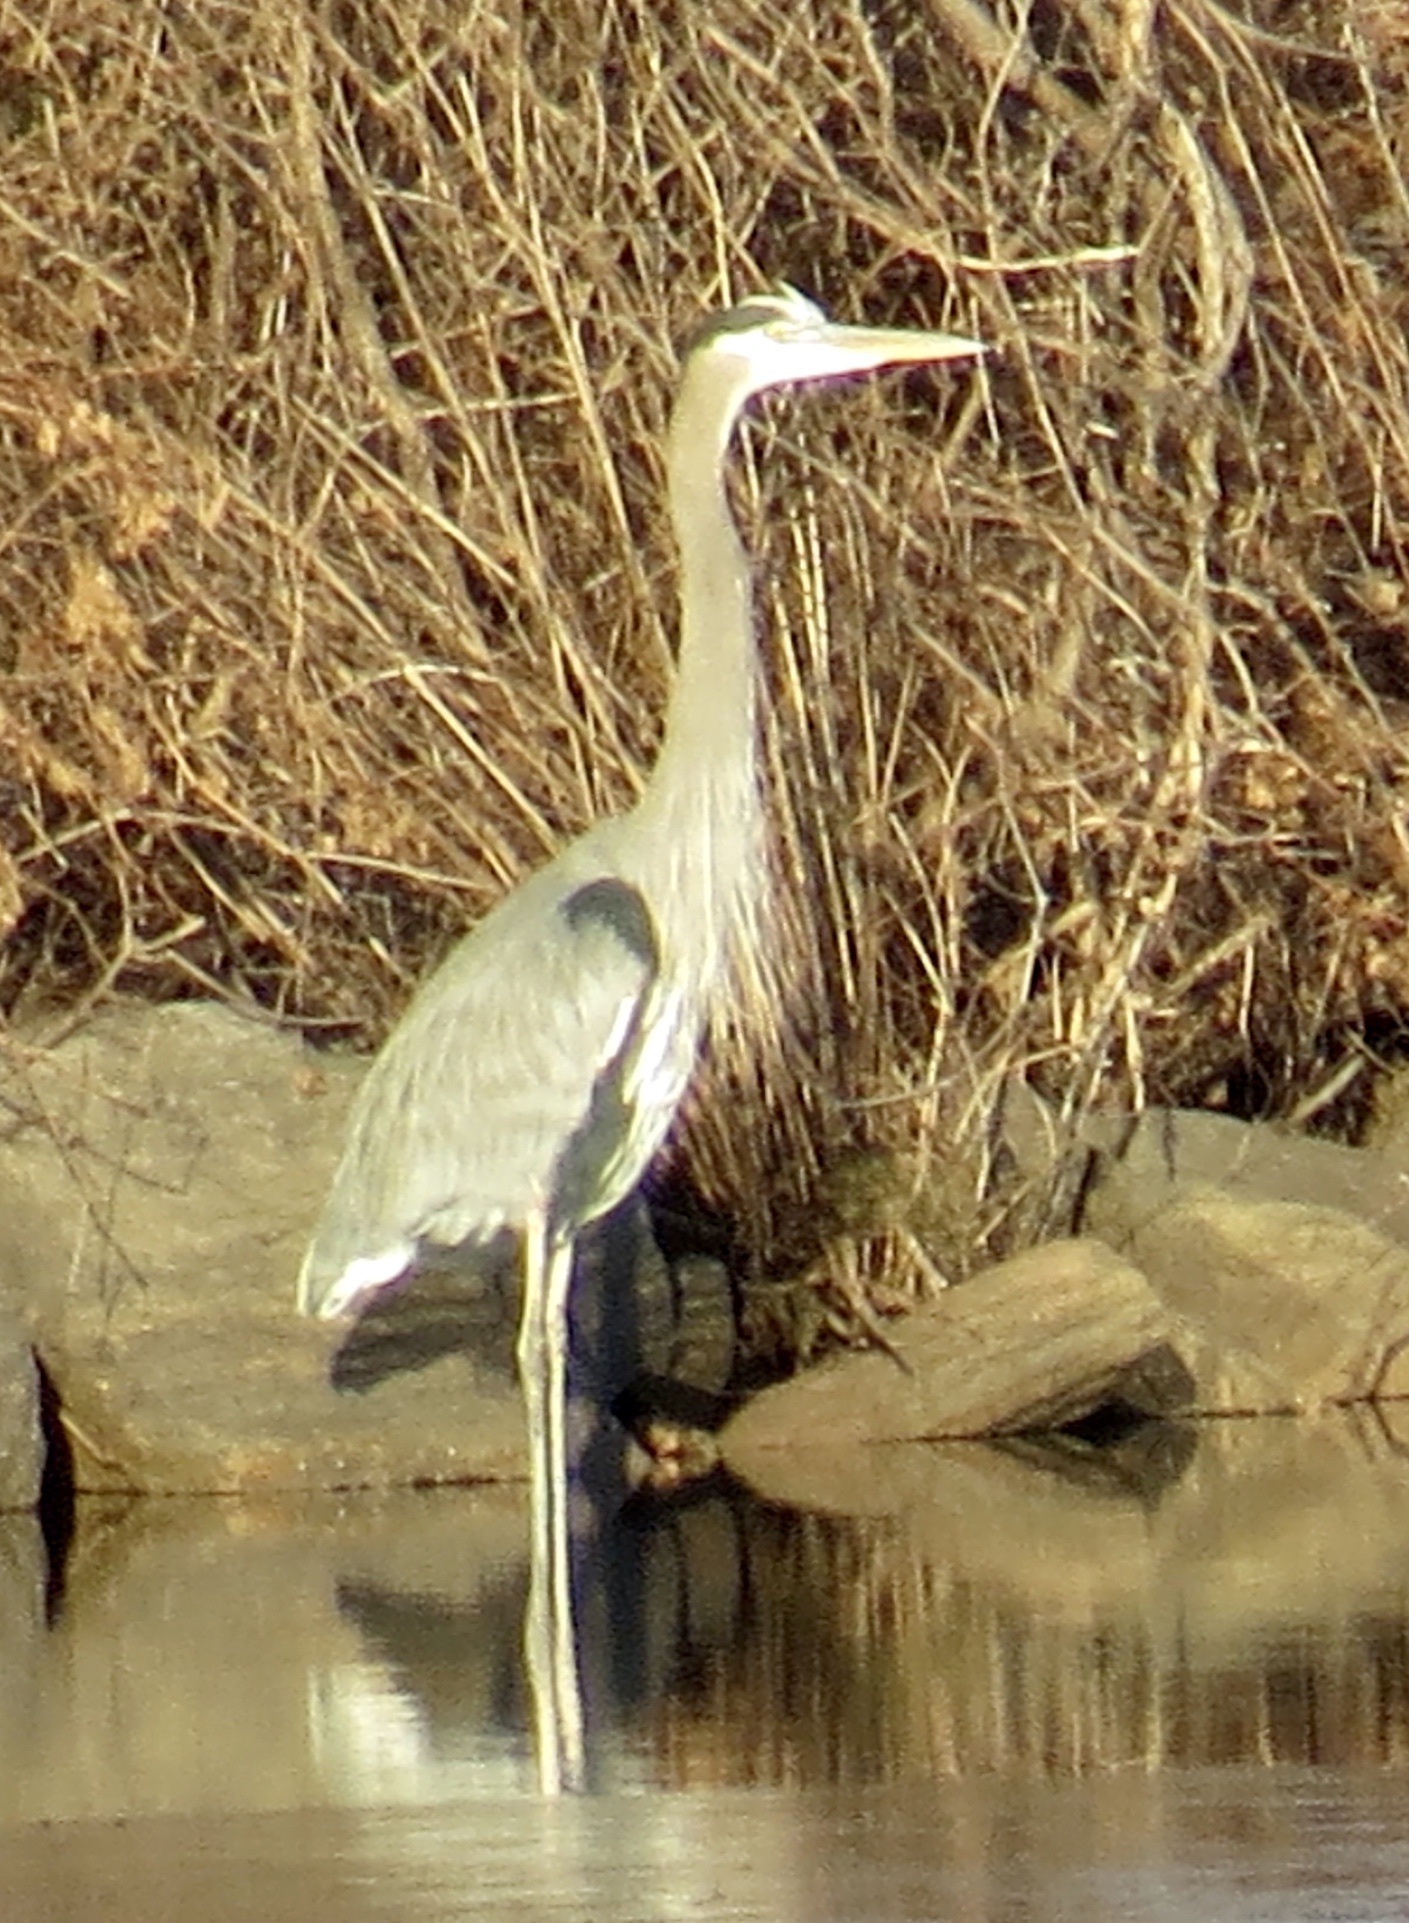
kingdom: Animalia
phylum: Chordata
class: Aves
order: Pelecaniformes
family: Ardeidae
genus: Ardea
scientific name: Ardea herodias
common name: Great blue heron
